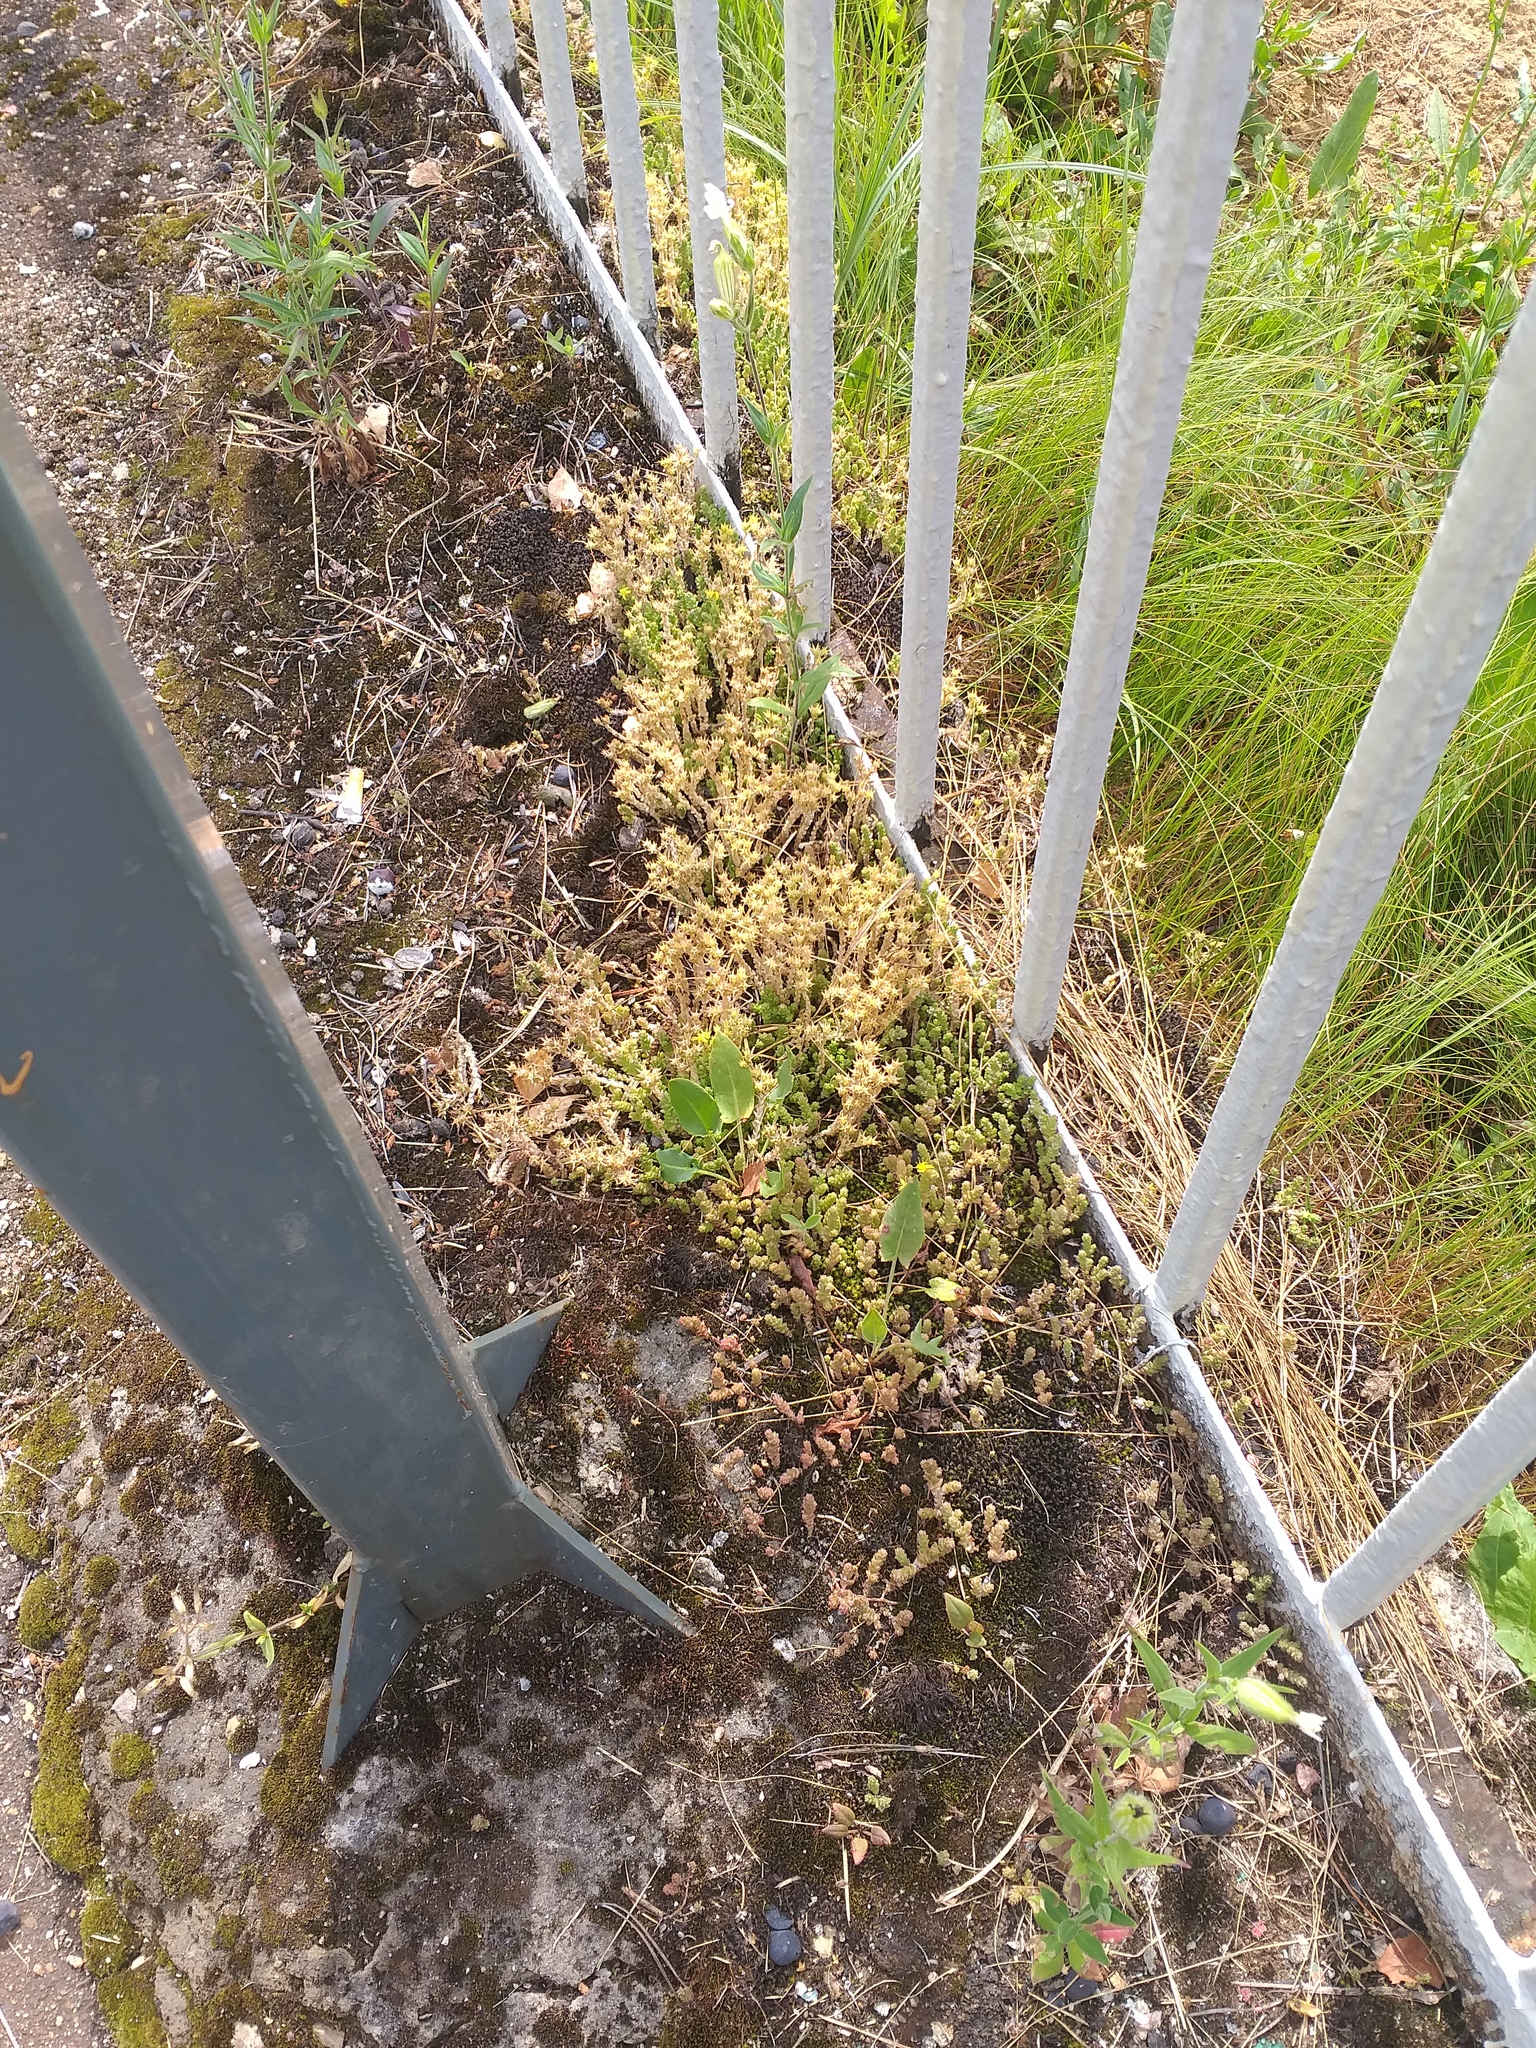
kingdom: Plantae
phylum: Tracheophyta
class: Magnoliopsida
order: Saxifragales
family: Crassulaceae
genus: Sedum
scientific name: Sedum acre
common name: Biting stonecrop
